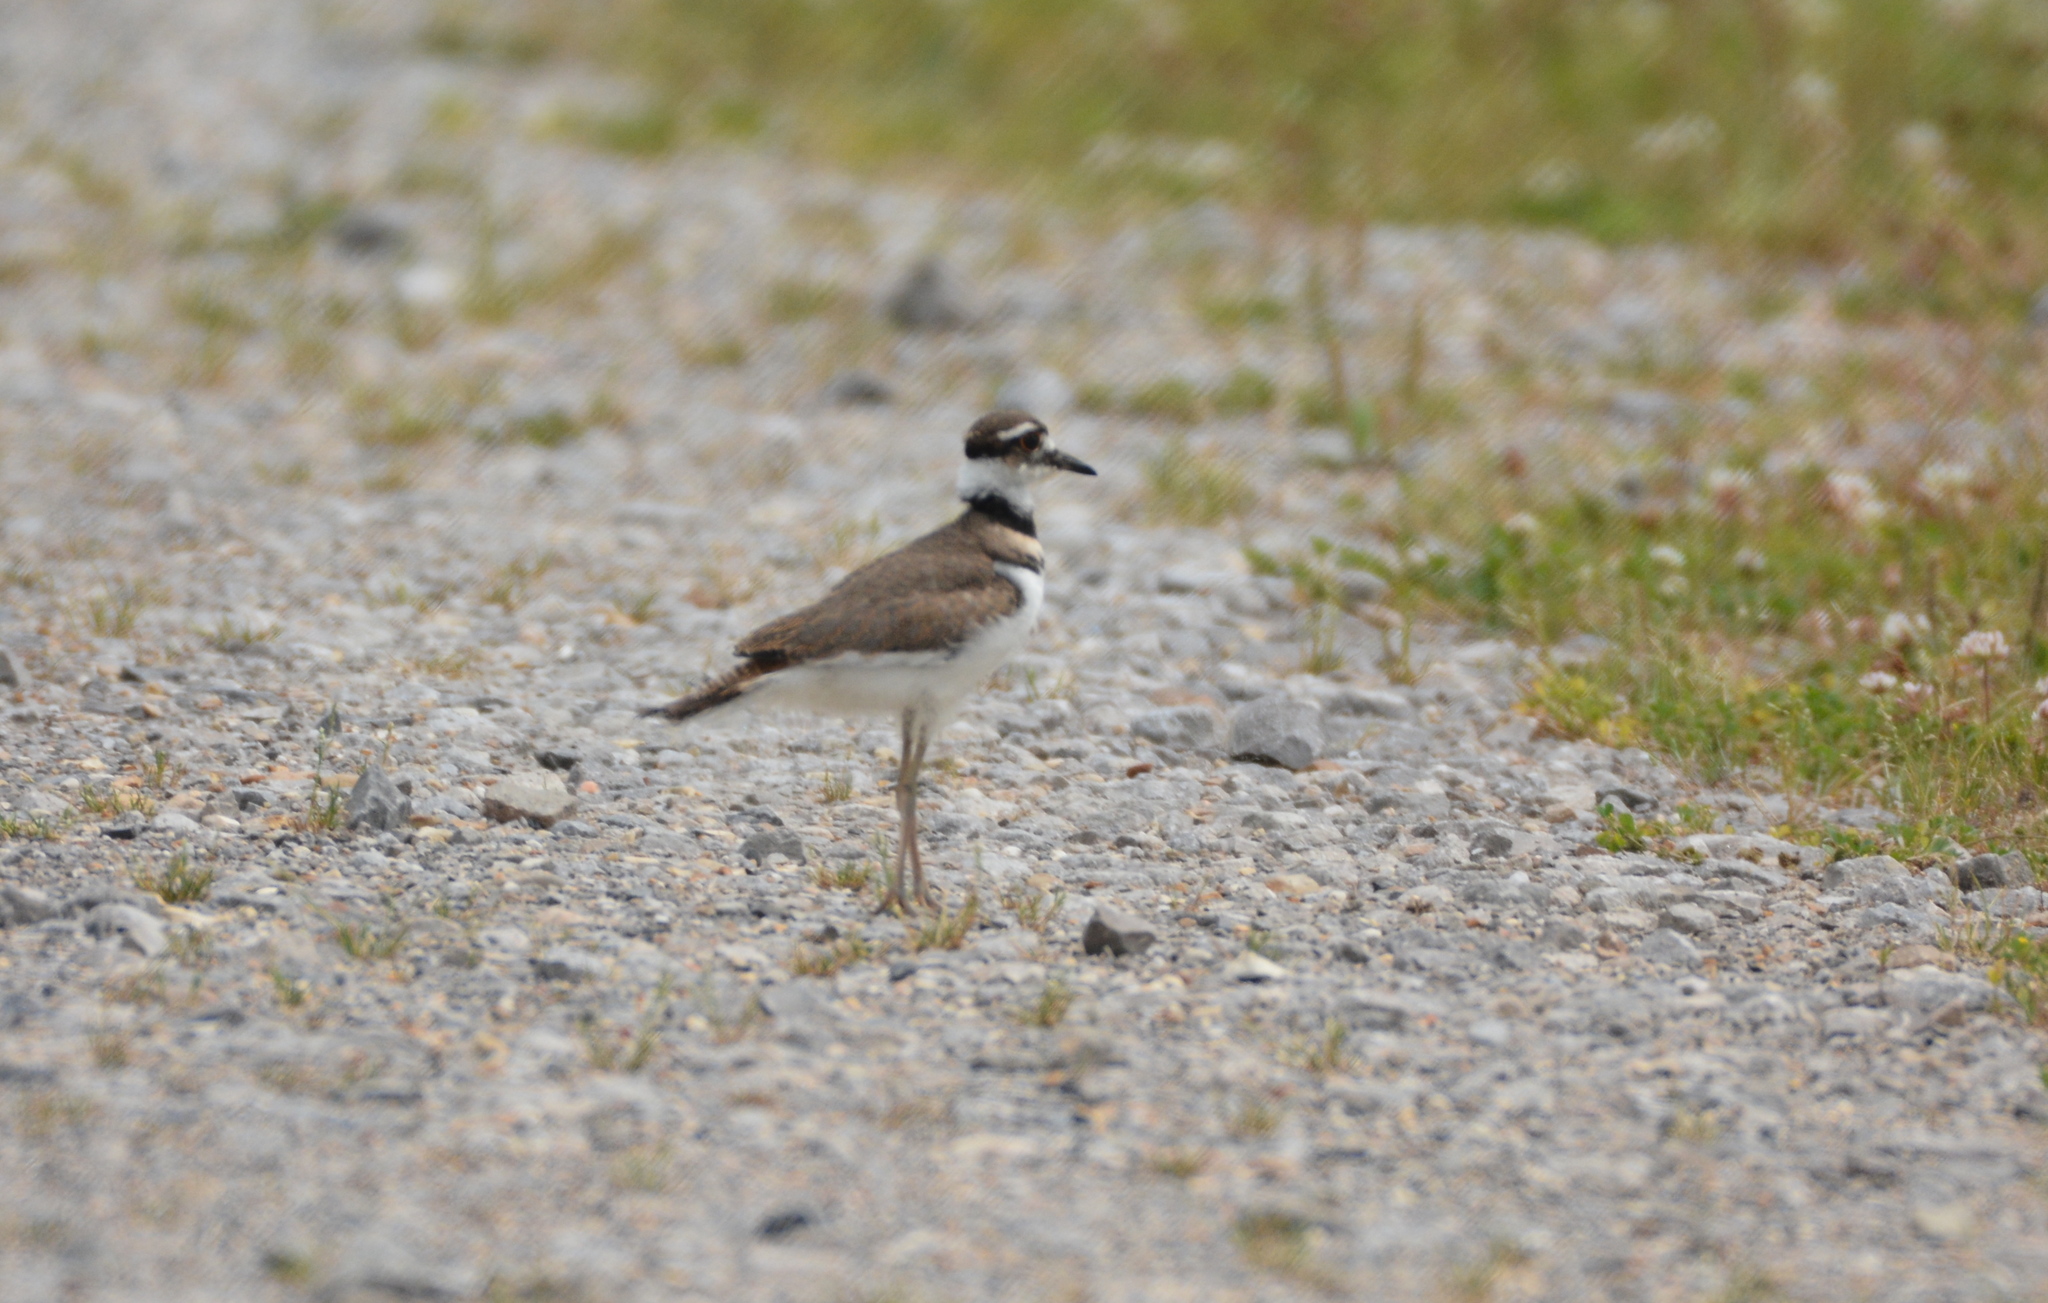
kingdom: Animalia
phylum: Chordata
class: Aves
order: Charadriiformes
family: Charadriidae
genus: Charadrius
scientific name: Charadrius vociferus
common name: Killdeer
